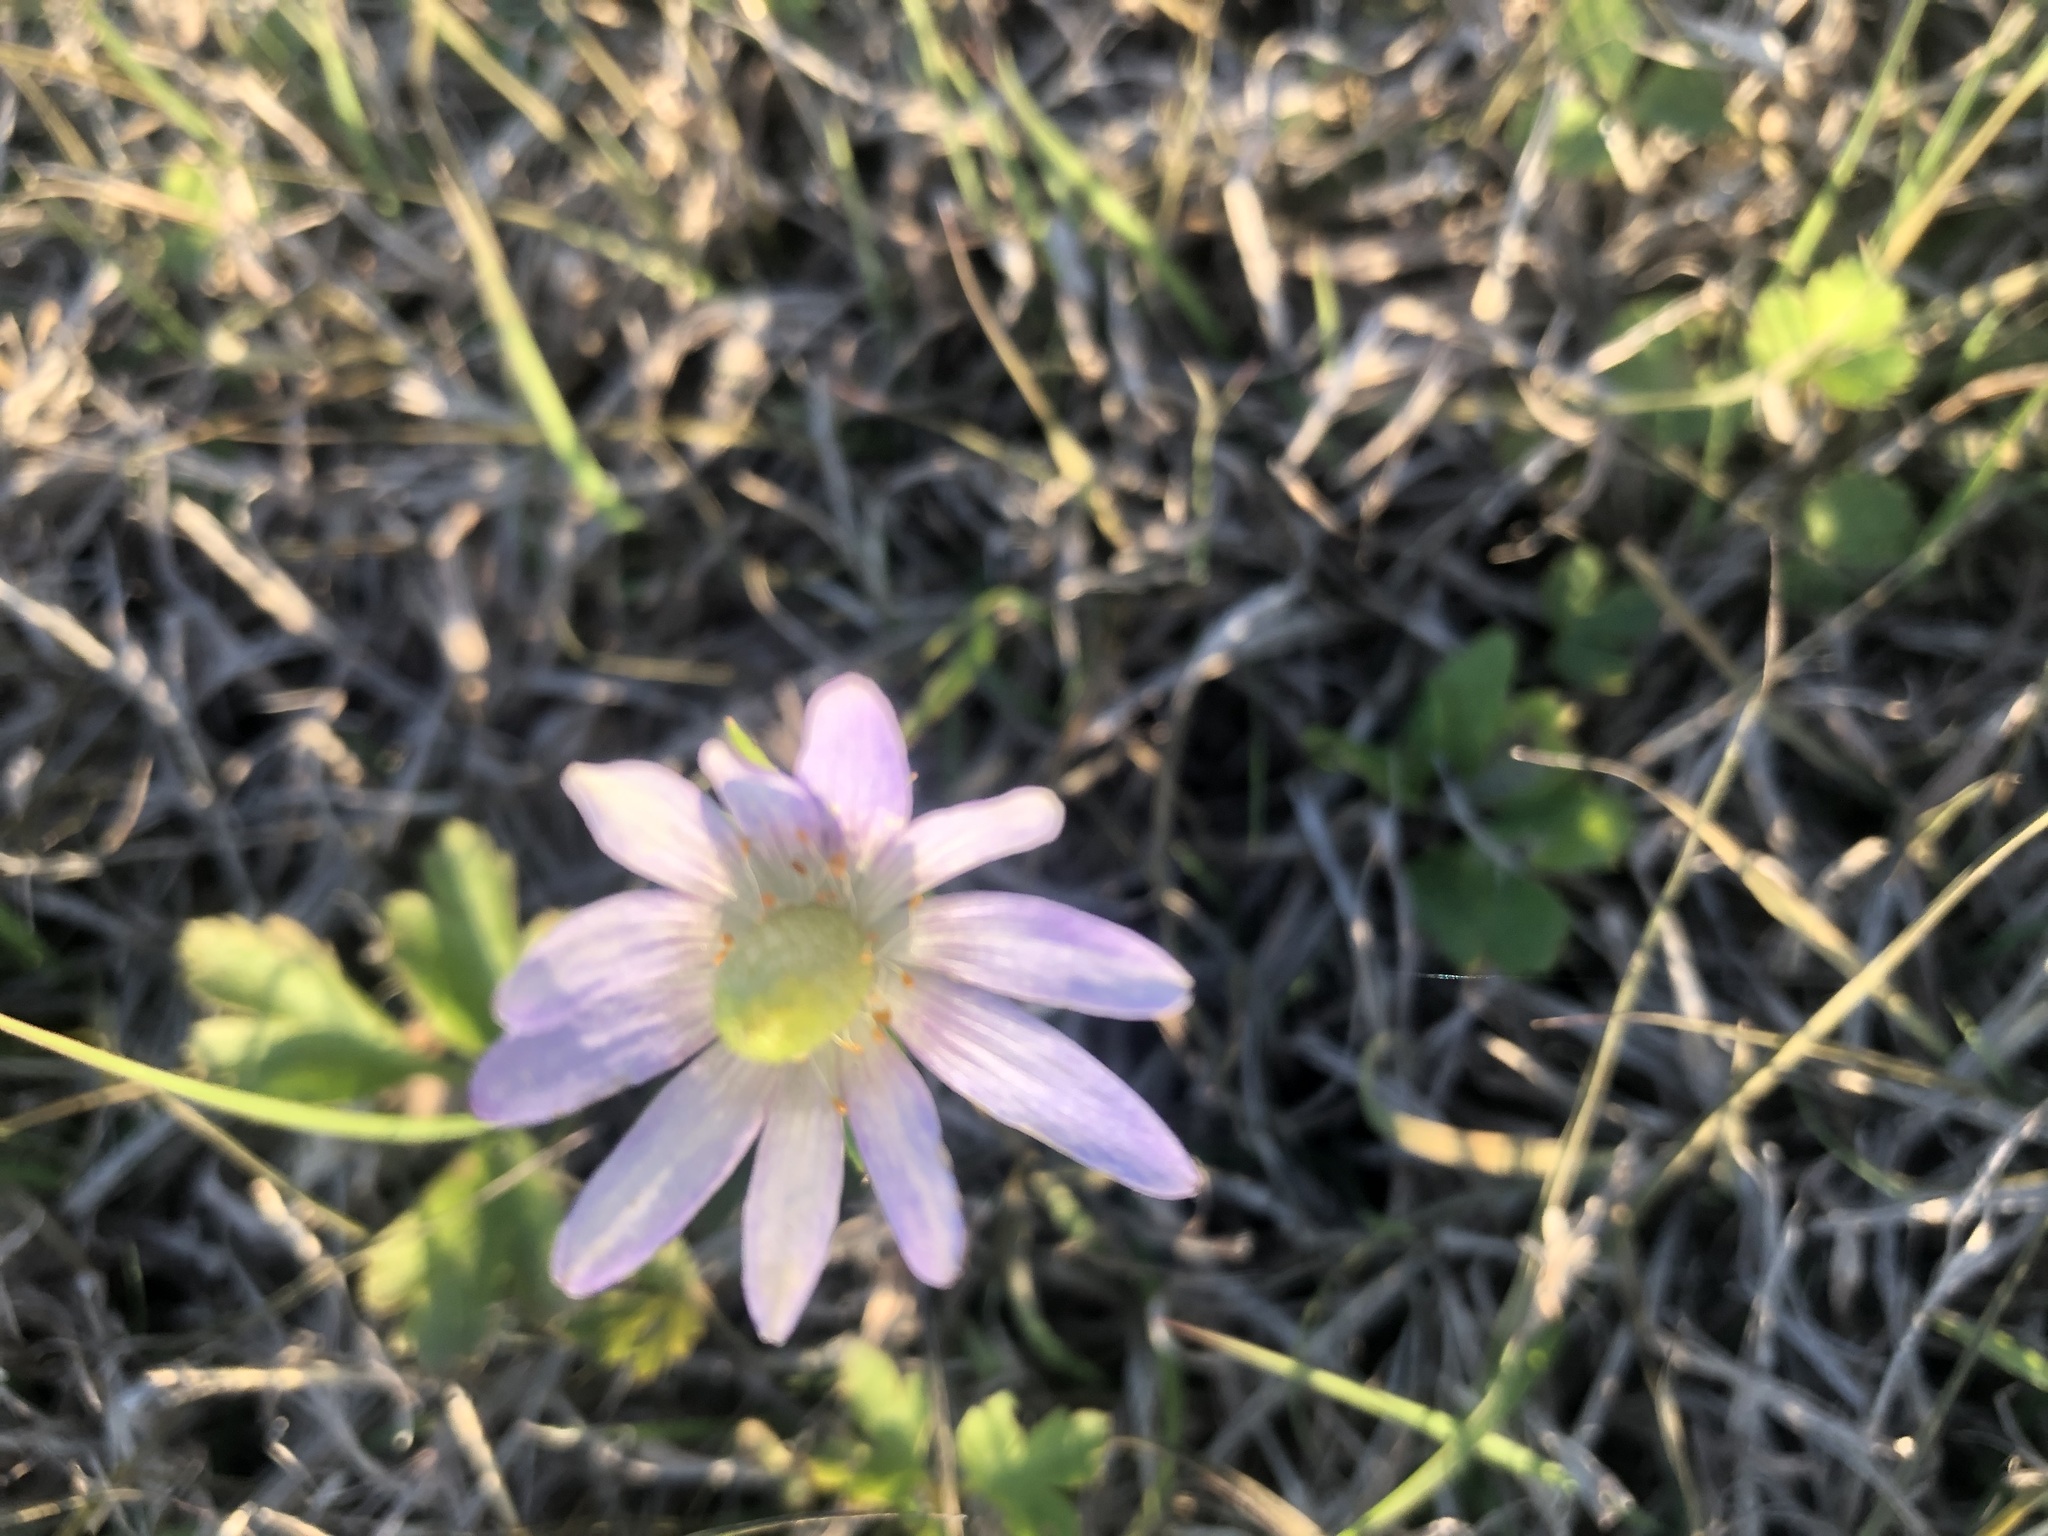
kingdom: Plantae
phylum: Tracheophyta
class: Magnoliopsida
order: Ranunculales
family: Ranunculaceae
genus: Anemone
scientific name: Anemone berlandieri
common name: Ten-petal anemone
